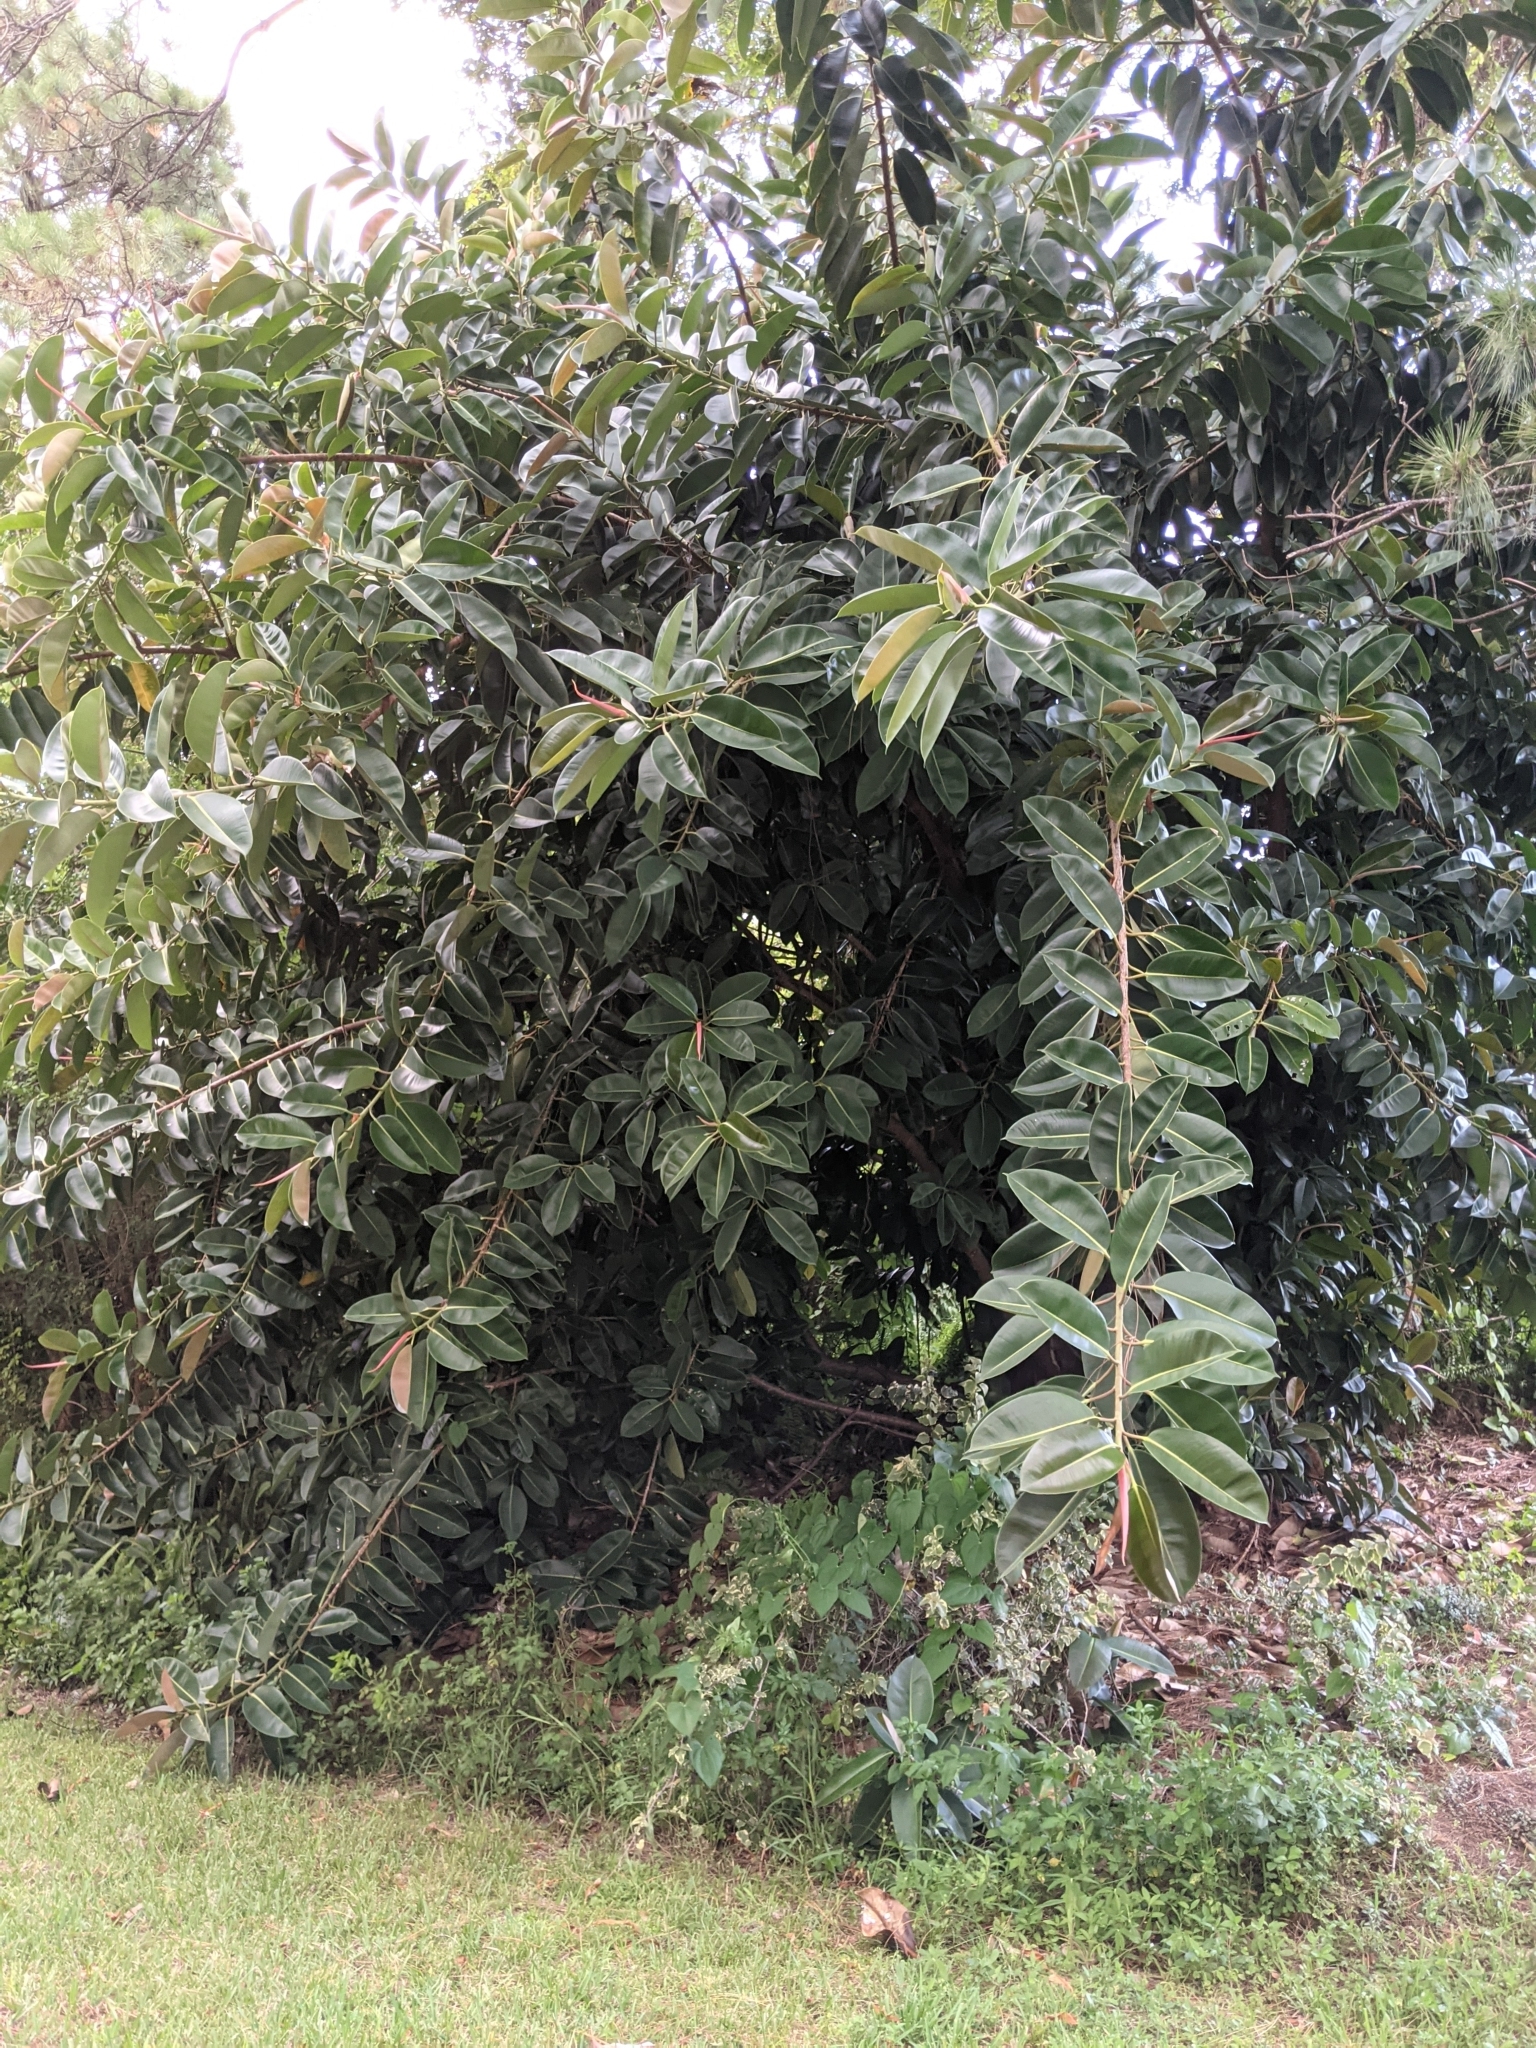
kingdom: Plantae
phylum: Tracheophyta
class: Magnoliopsida
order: Rosales
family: Moraceae
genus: Ficus
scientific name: Ficus elastica
